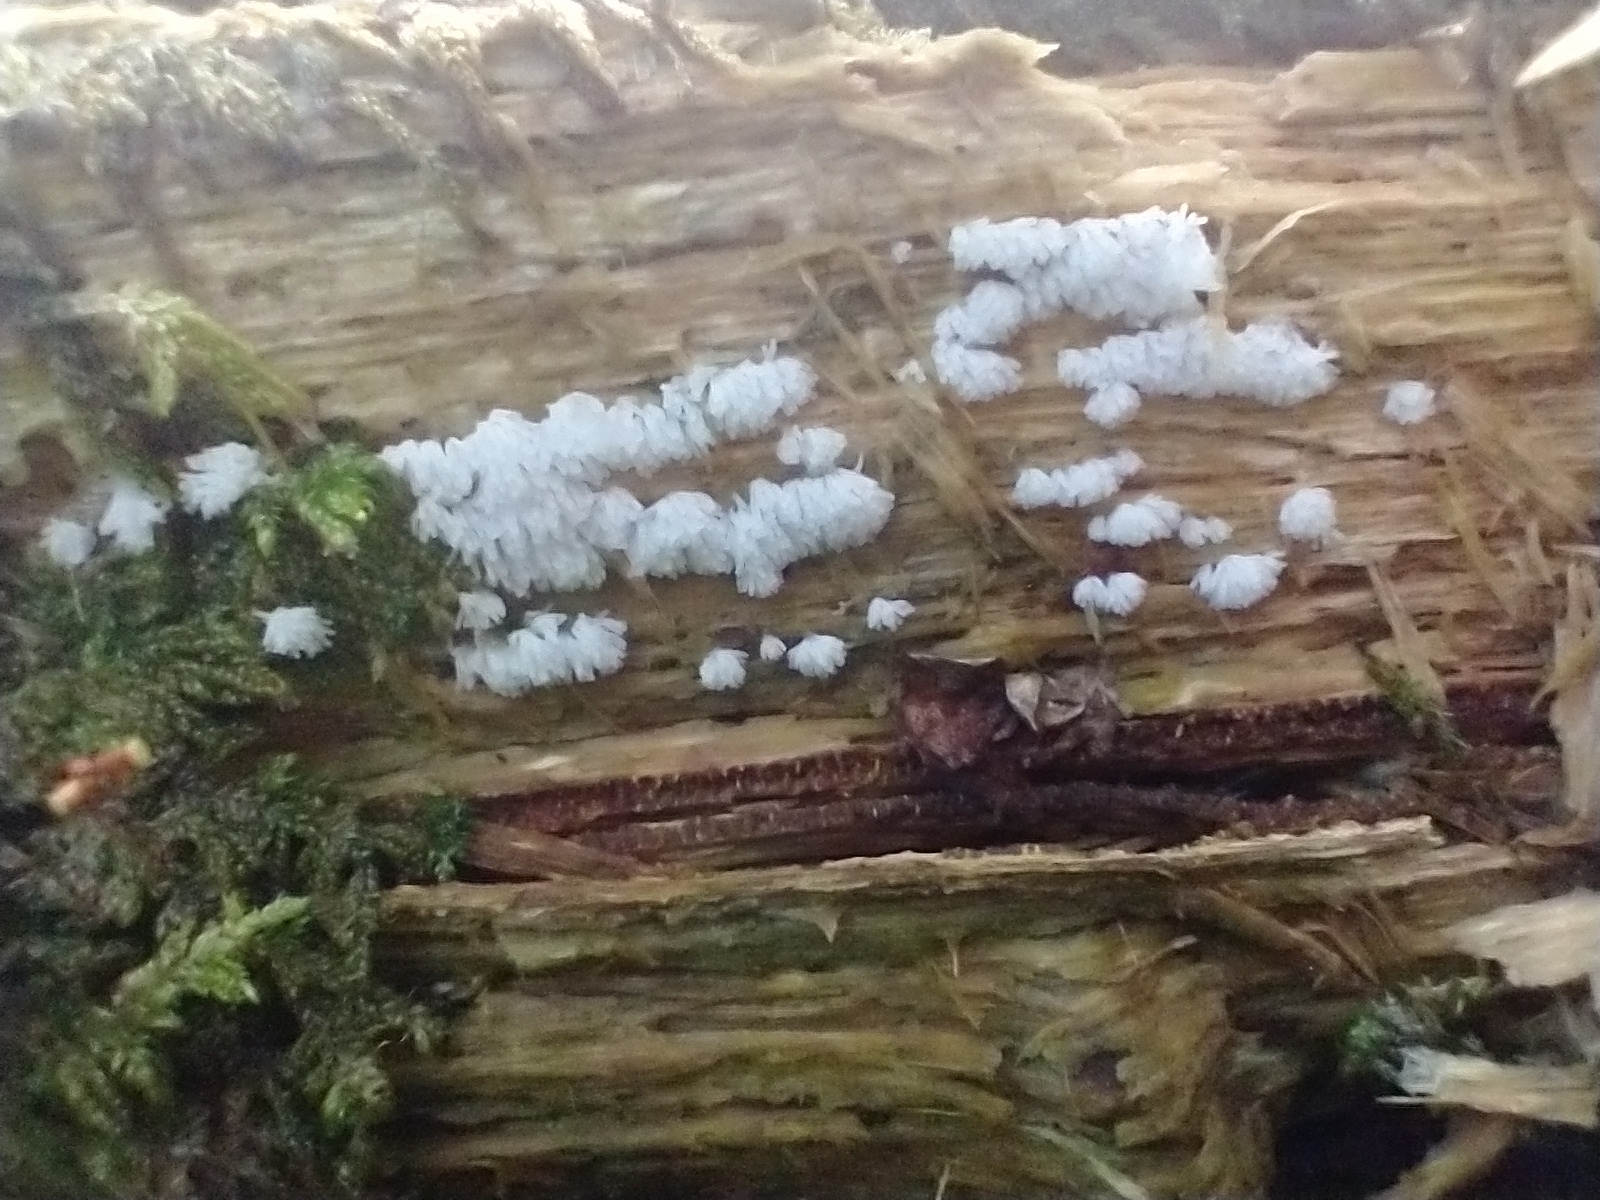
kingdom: Protozoa
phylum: Mycetozoa
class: Protosteliomycetes
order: Ceratiomyxales
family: Ceratiomyxaceae
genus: Ceratiomyxa
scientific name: Ceratiomyxa fruticulosa
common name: Honeycomb coral slime mold
